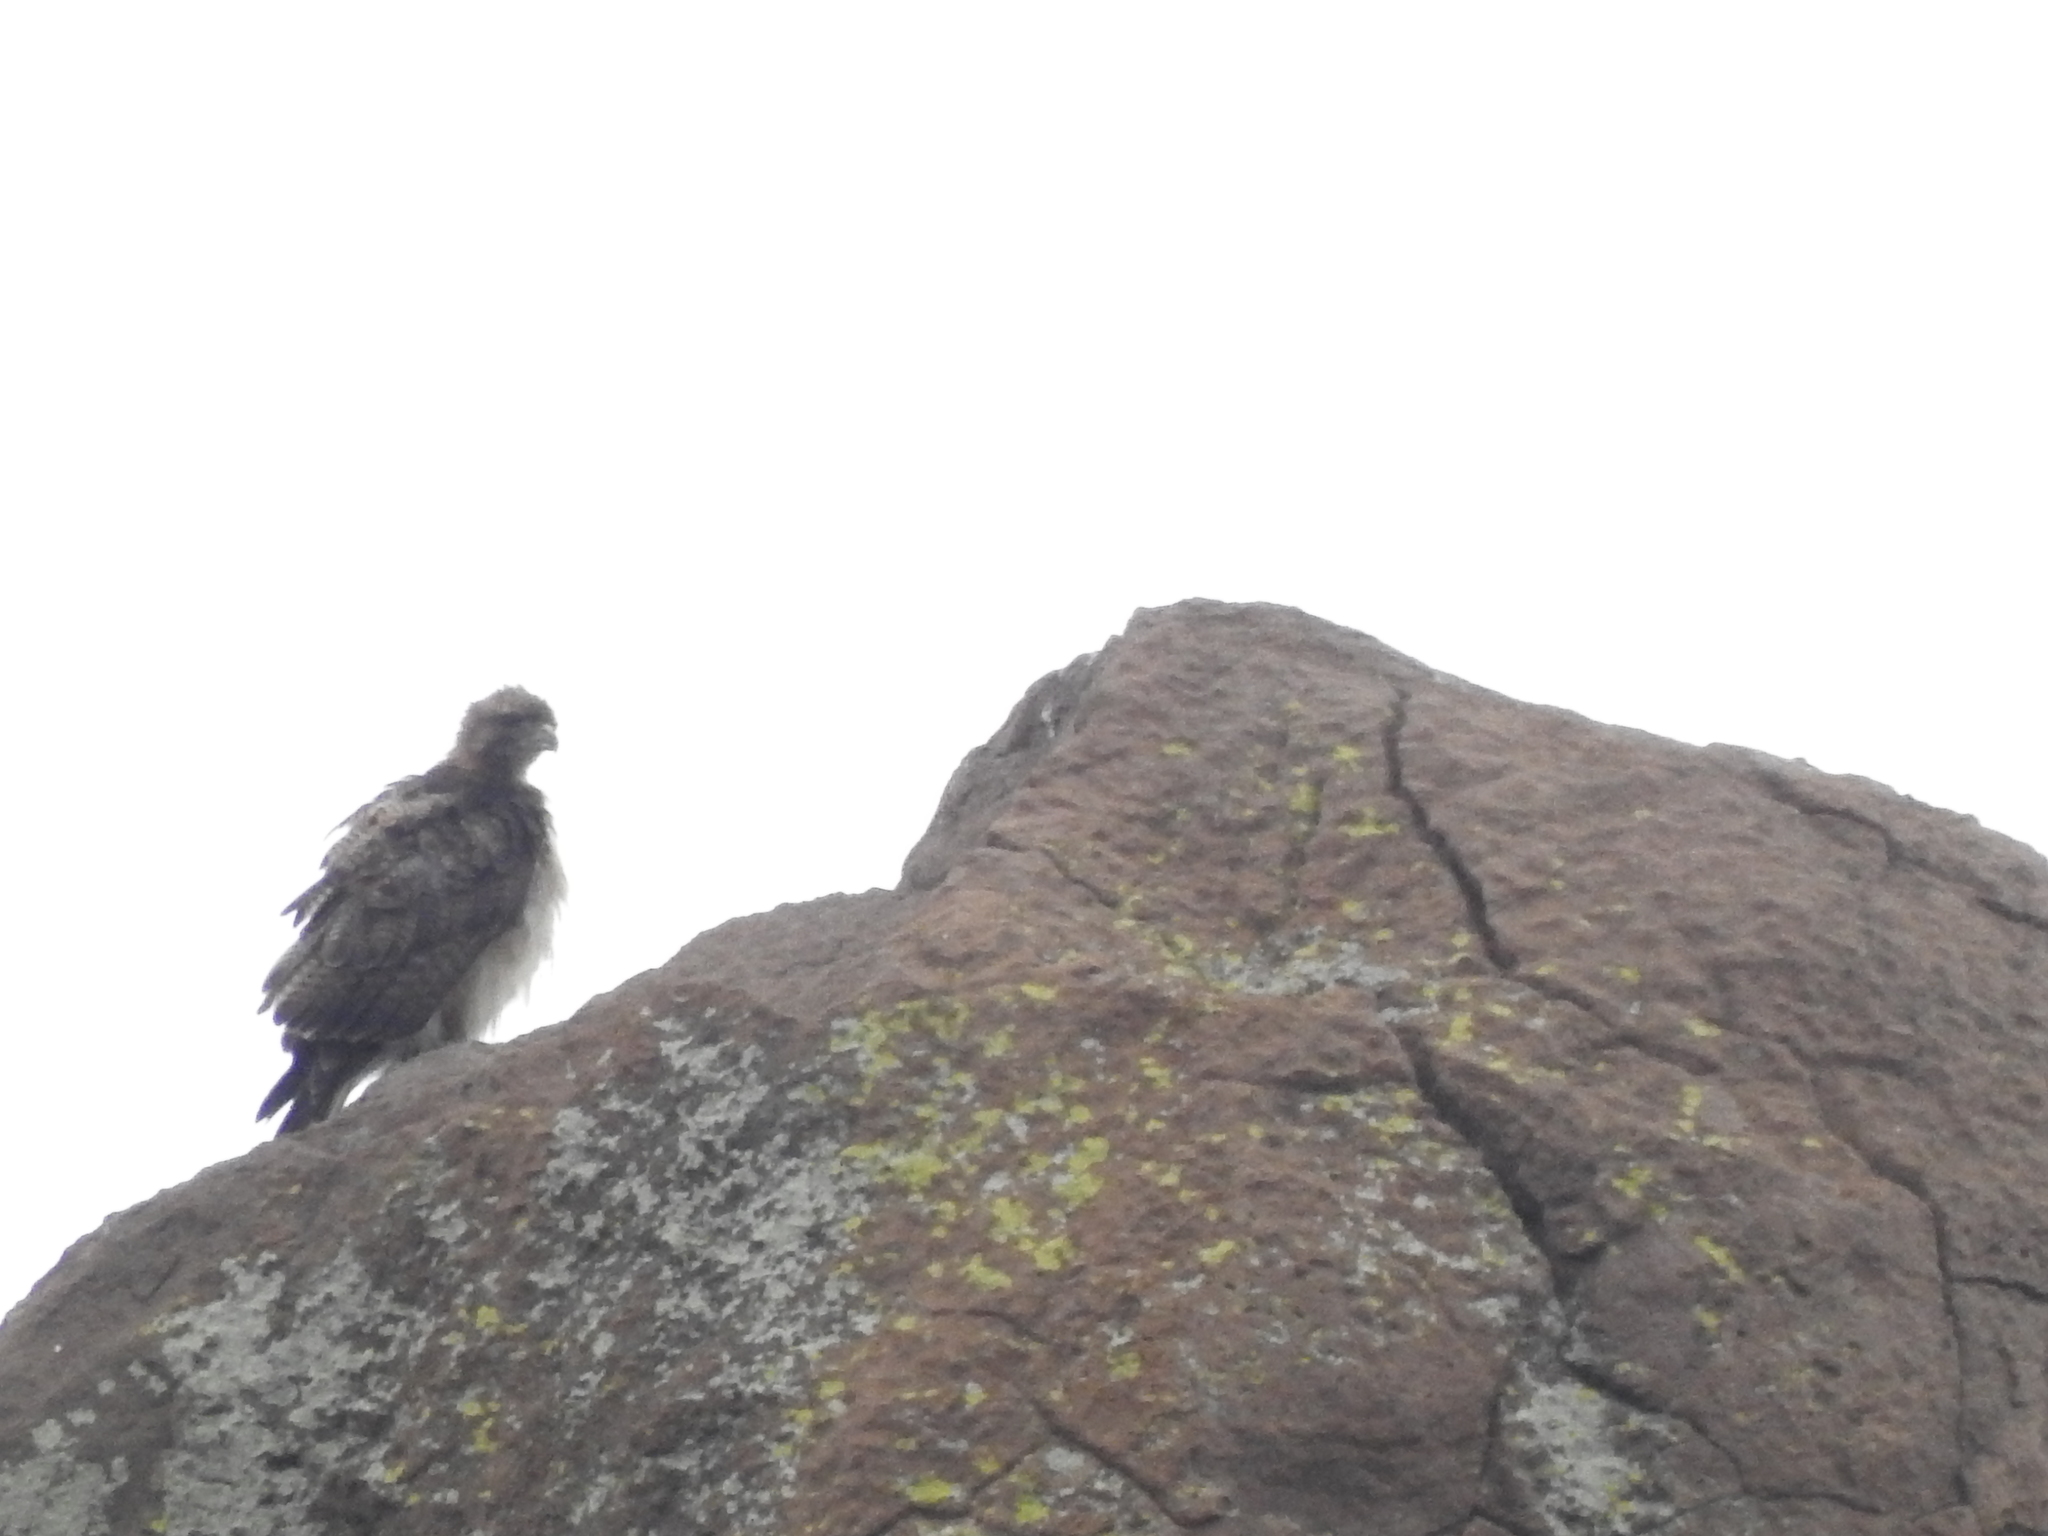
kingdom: Animalia
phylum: Chordata
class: Aves
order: Accipitriformes
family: Accipitridae
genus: Buteo
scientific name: Buteo jamaicensis
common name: Red-tailed hawk
